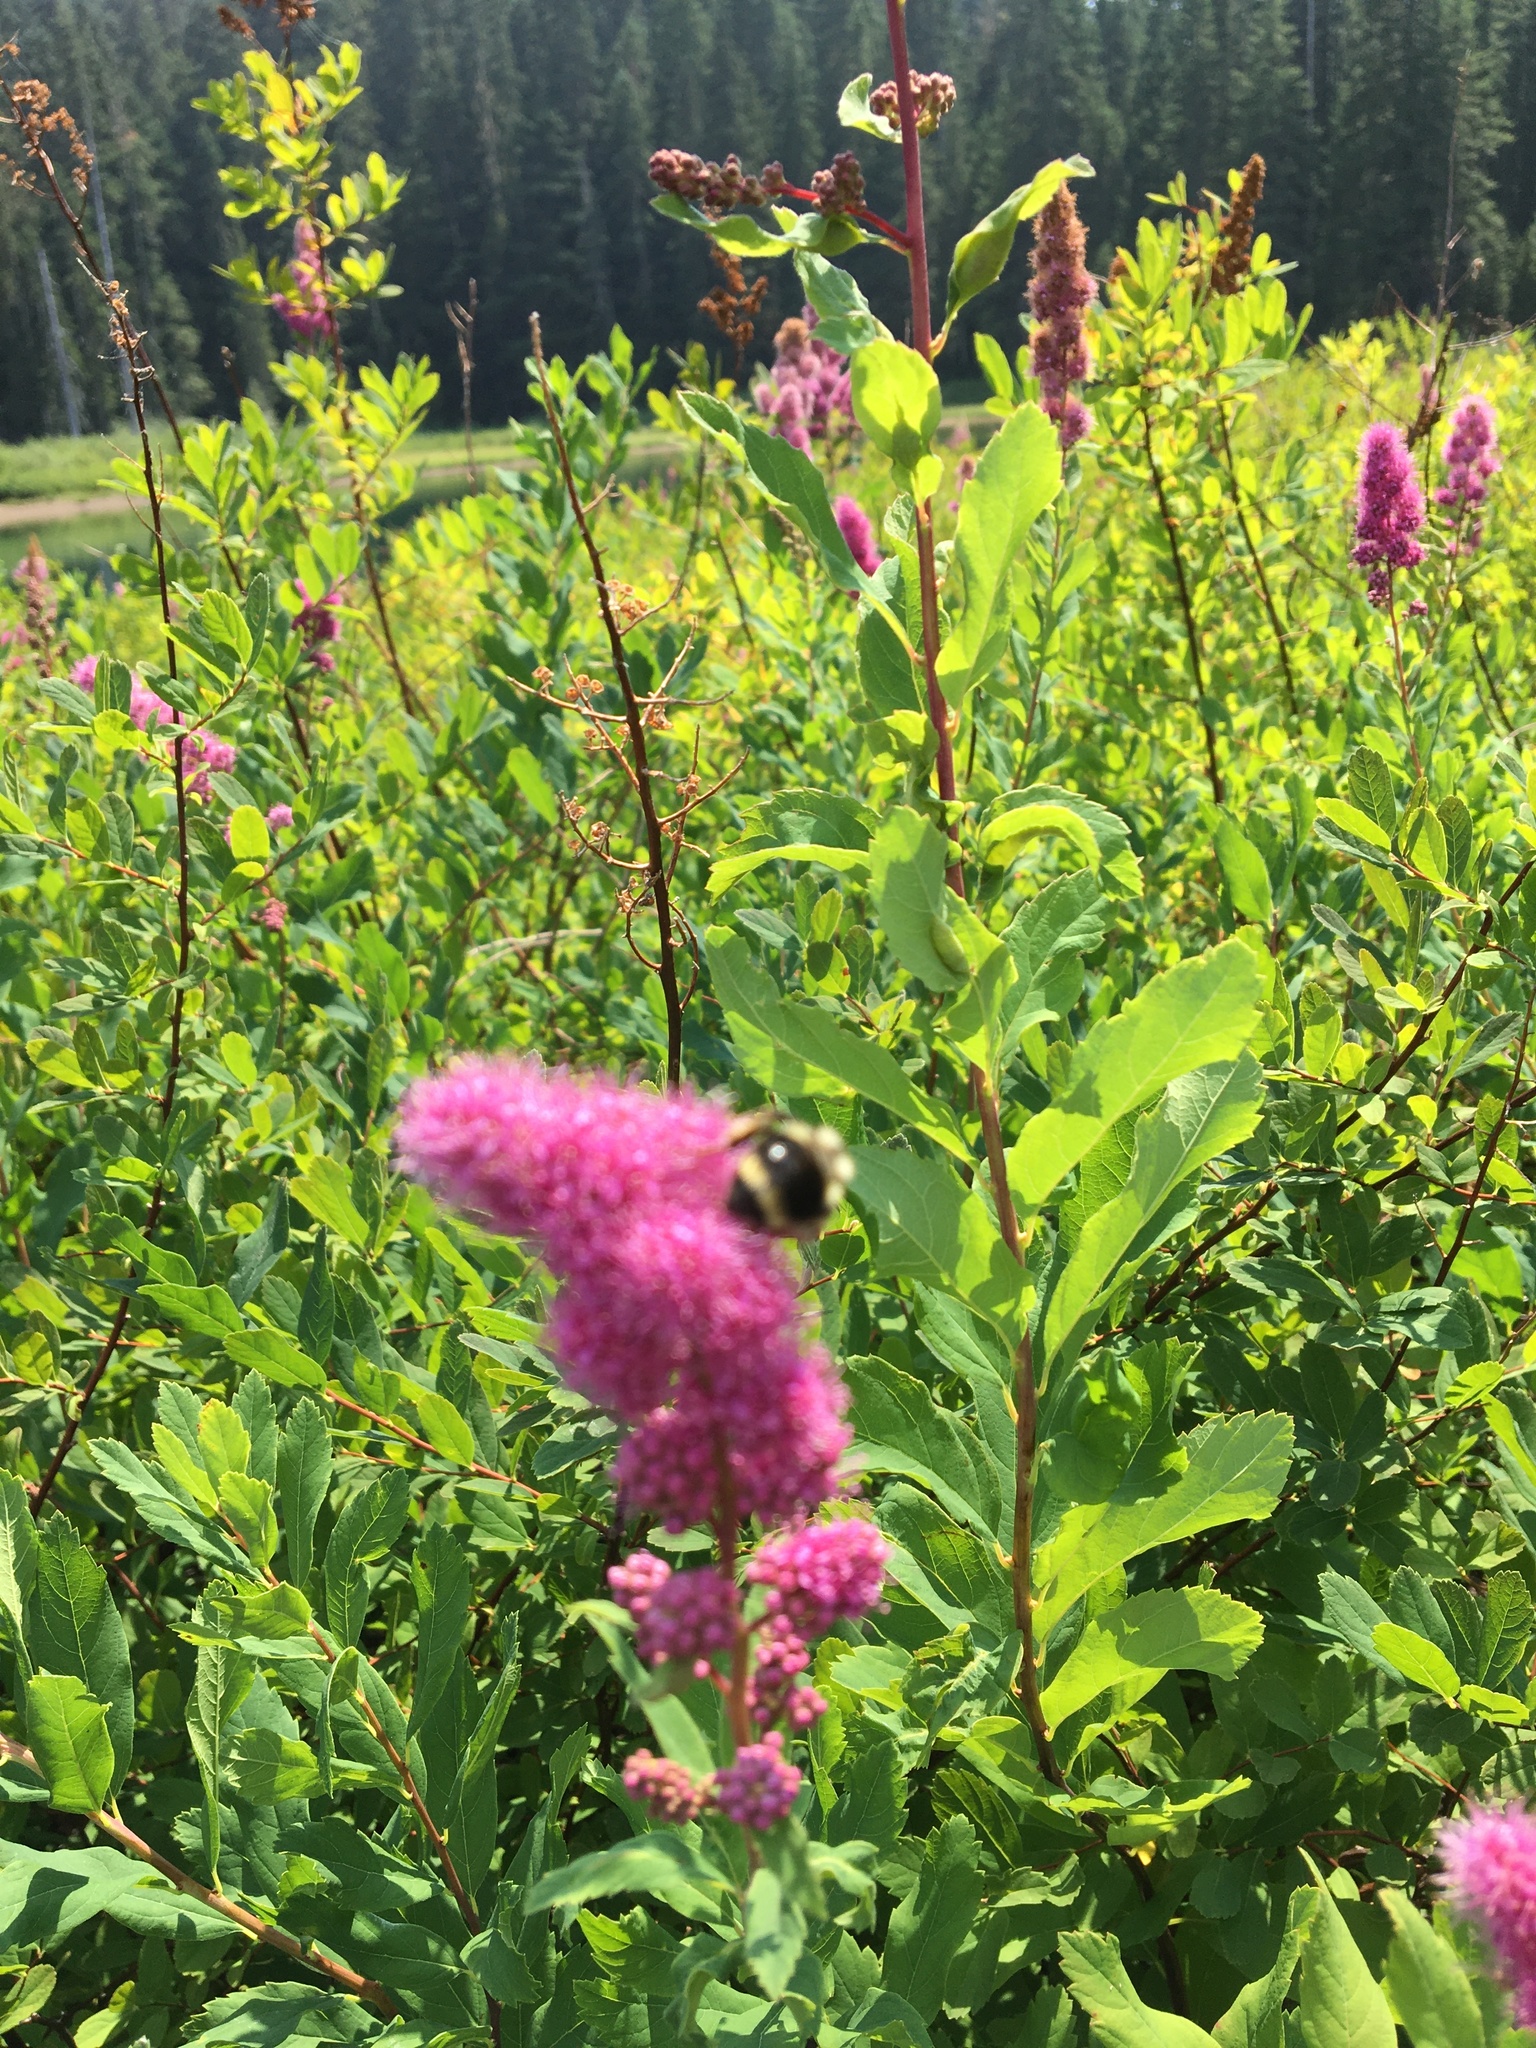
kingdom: Animalia
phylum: Arthropoda
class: Insecta
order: Hymenoptera
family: Apidae
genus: Bombus
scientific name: Bombus vancouverensis
